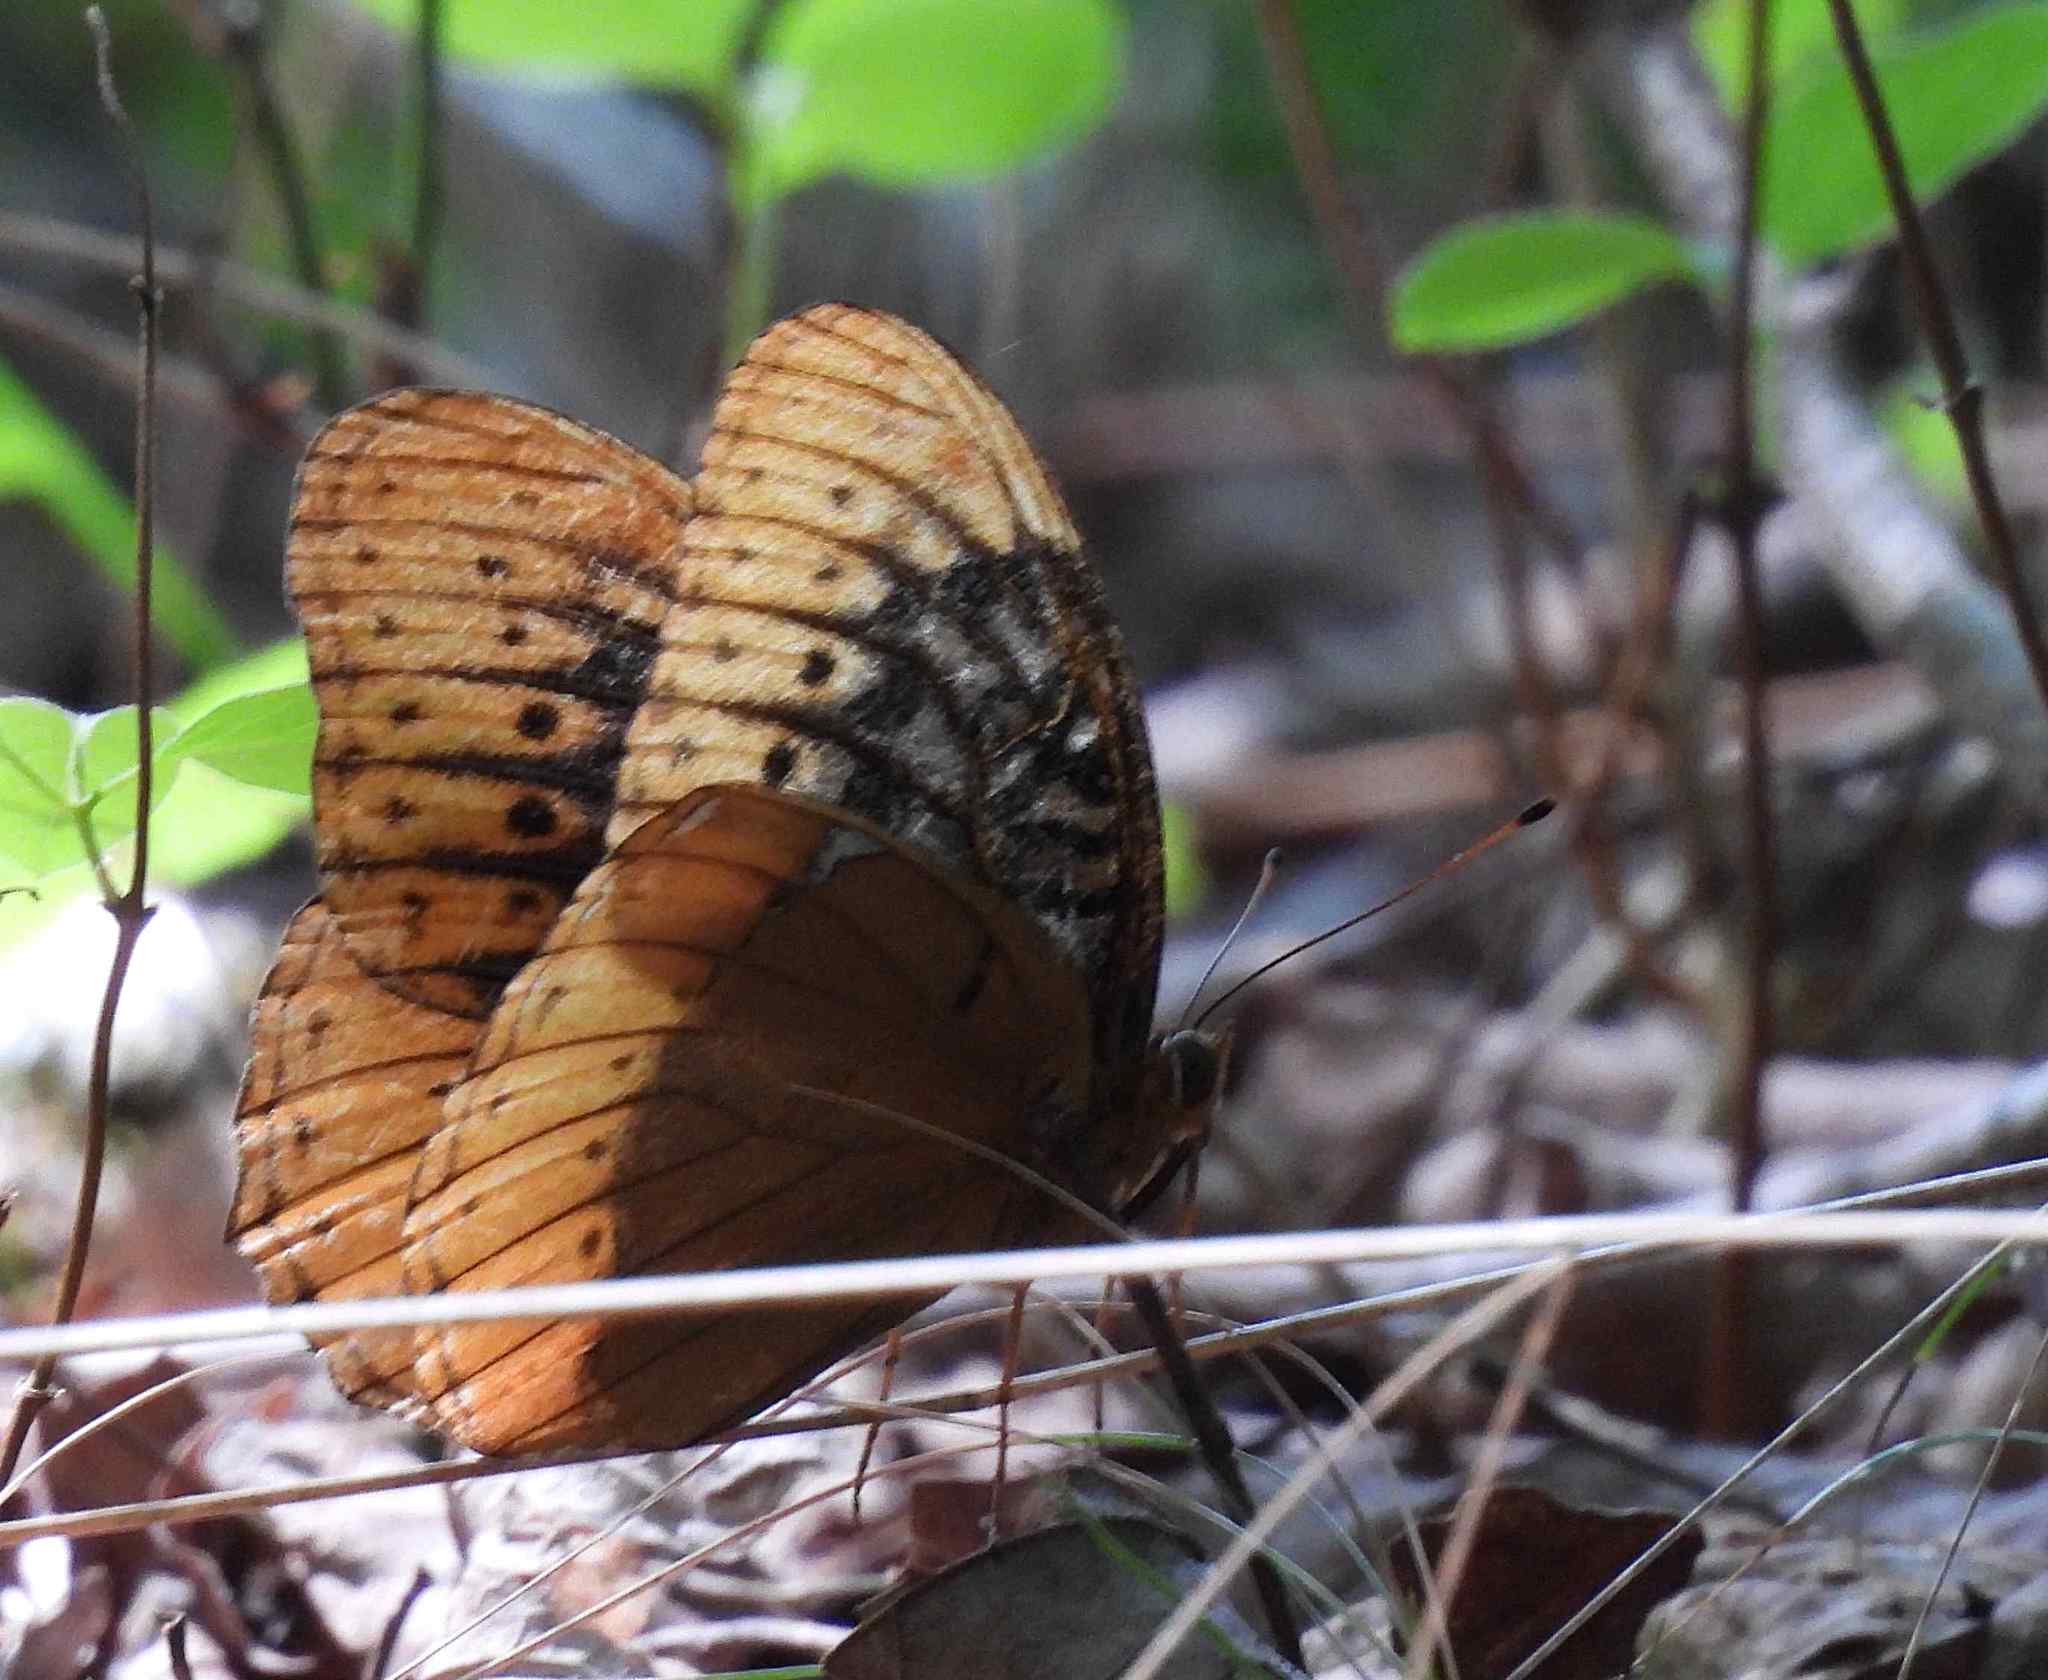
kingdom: Animalia
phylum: Arthropoda
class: Insecta
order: Lepidoptera
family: Nymphalidae
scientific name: Nymphalidae
